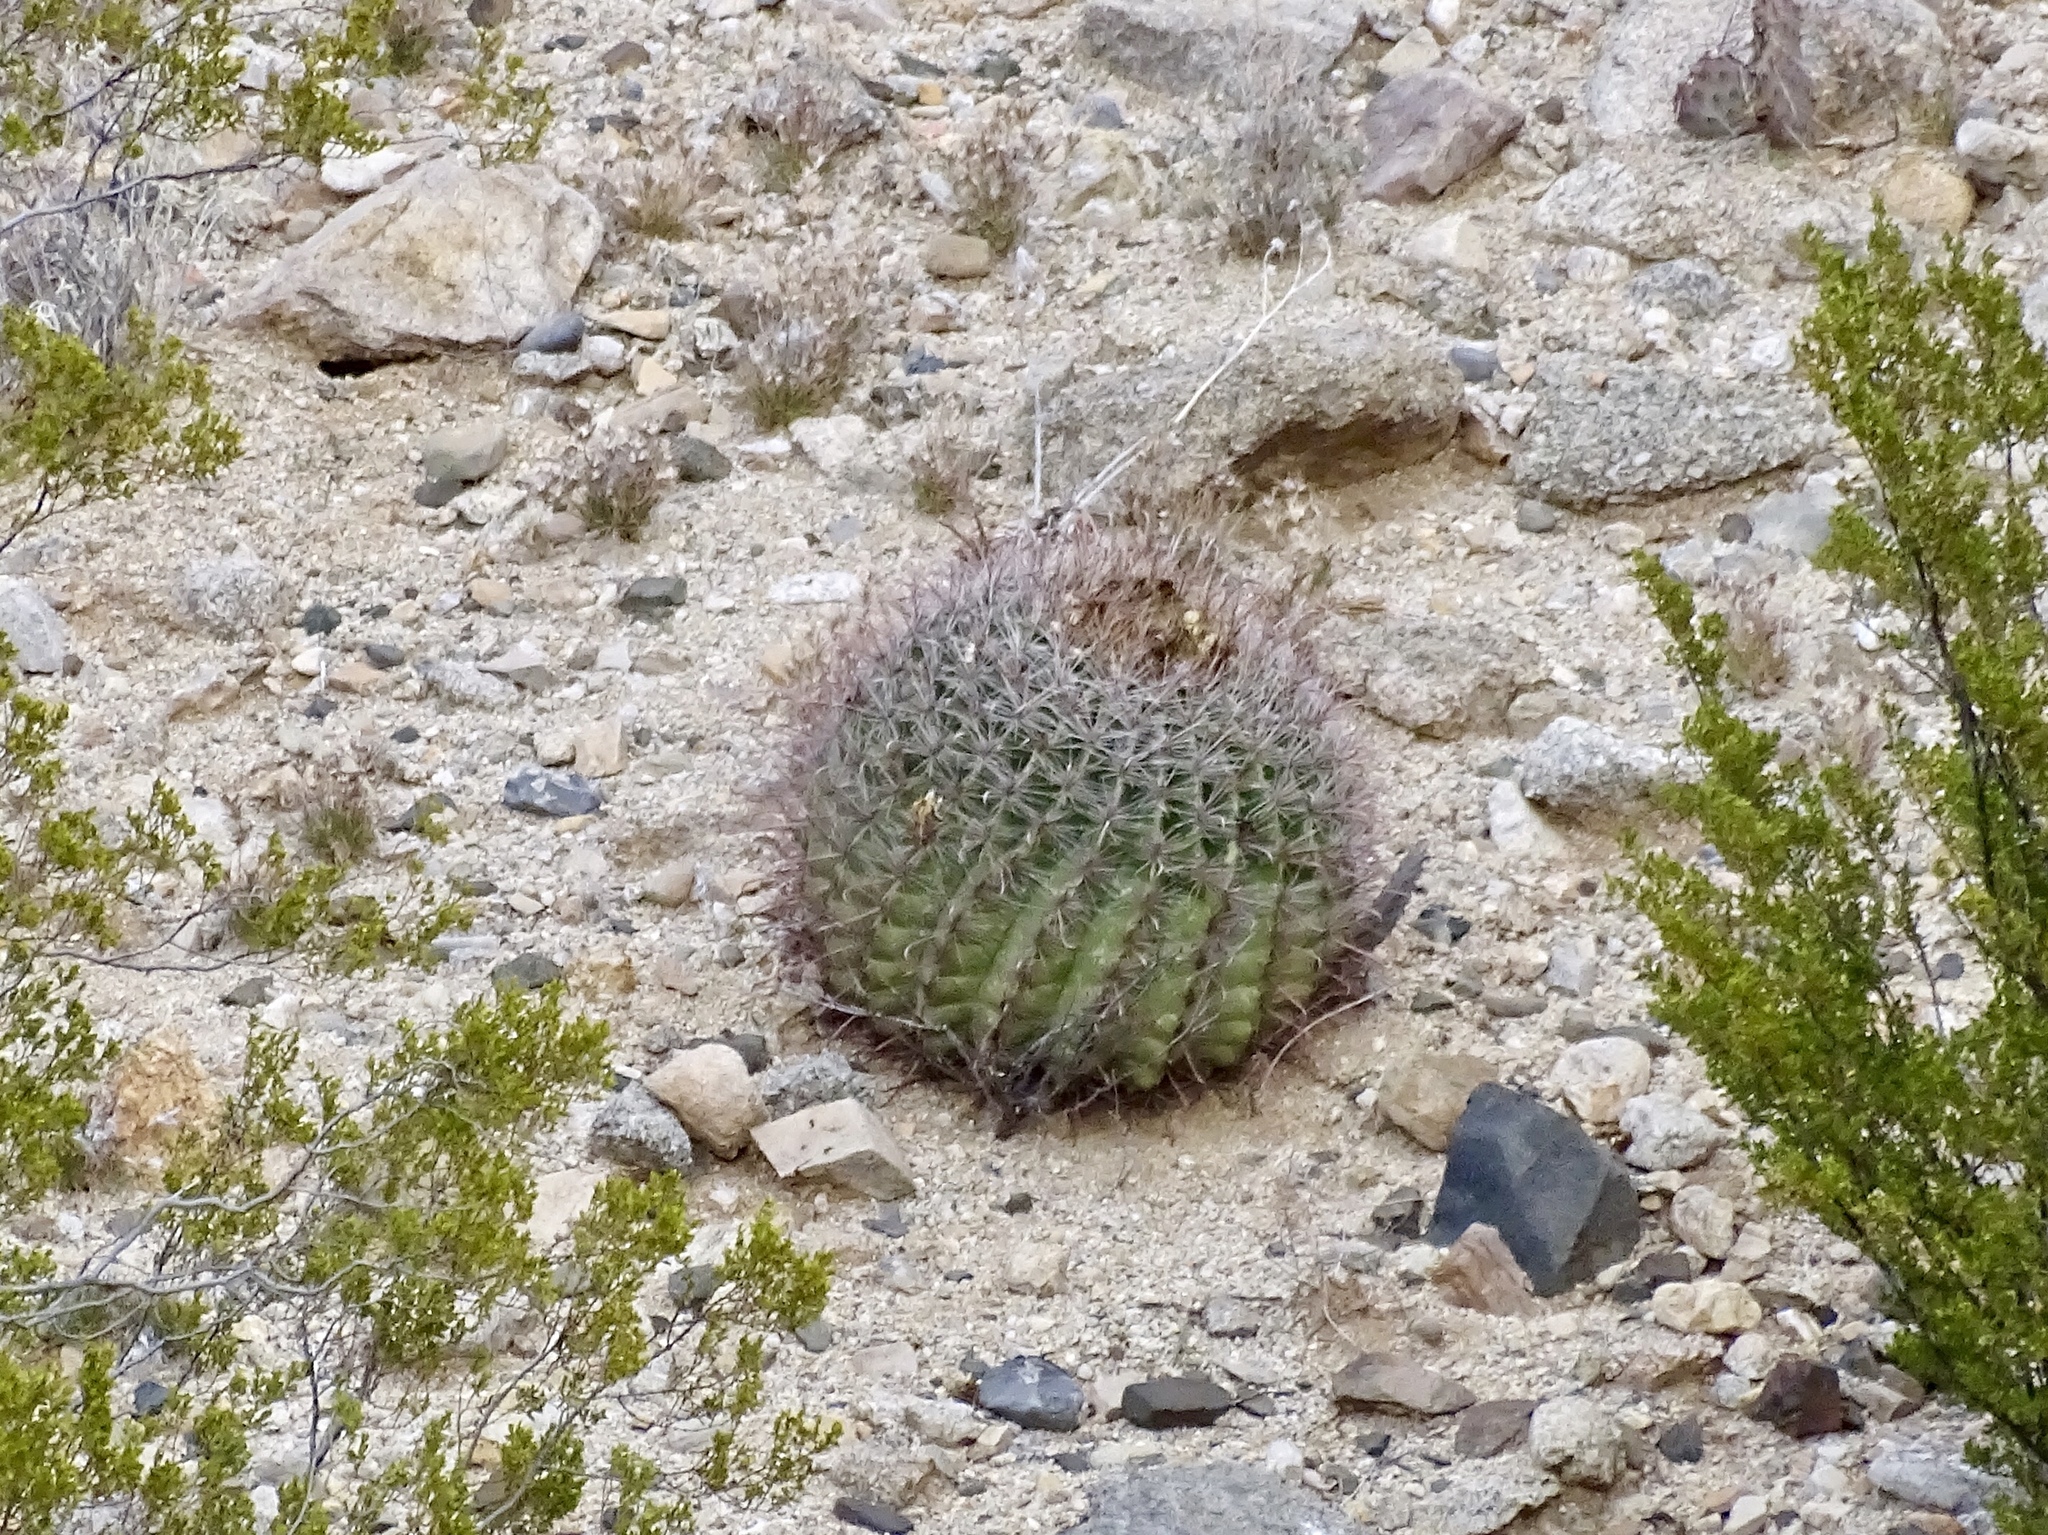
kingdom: Plantae
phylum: Tracheophyta
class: Magnoliopsida
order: Caryophyllales
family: Cactaceae
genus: Ferocactus
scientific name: Ferocactus wislizeni
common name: Candy barrel cactus
